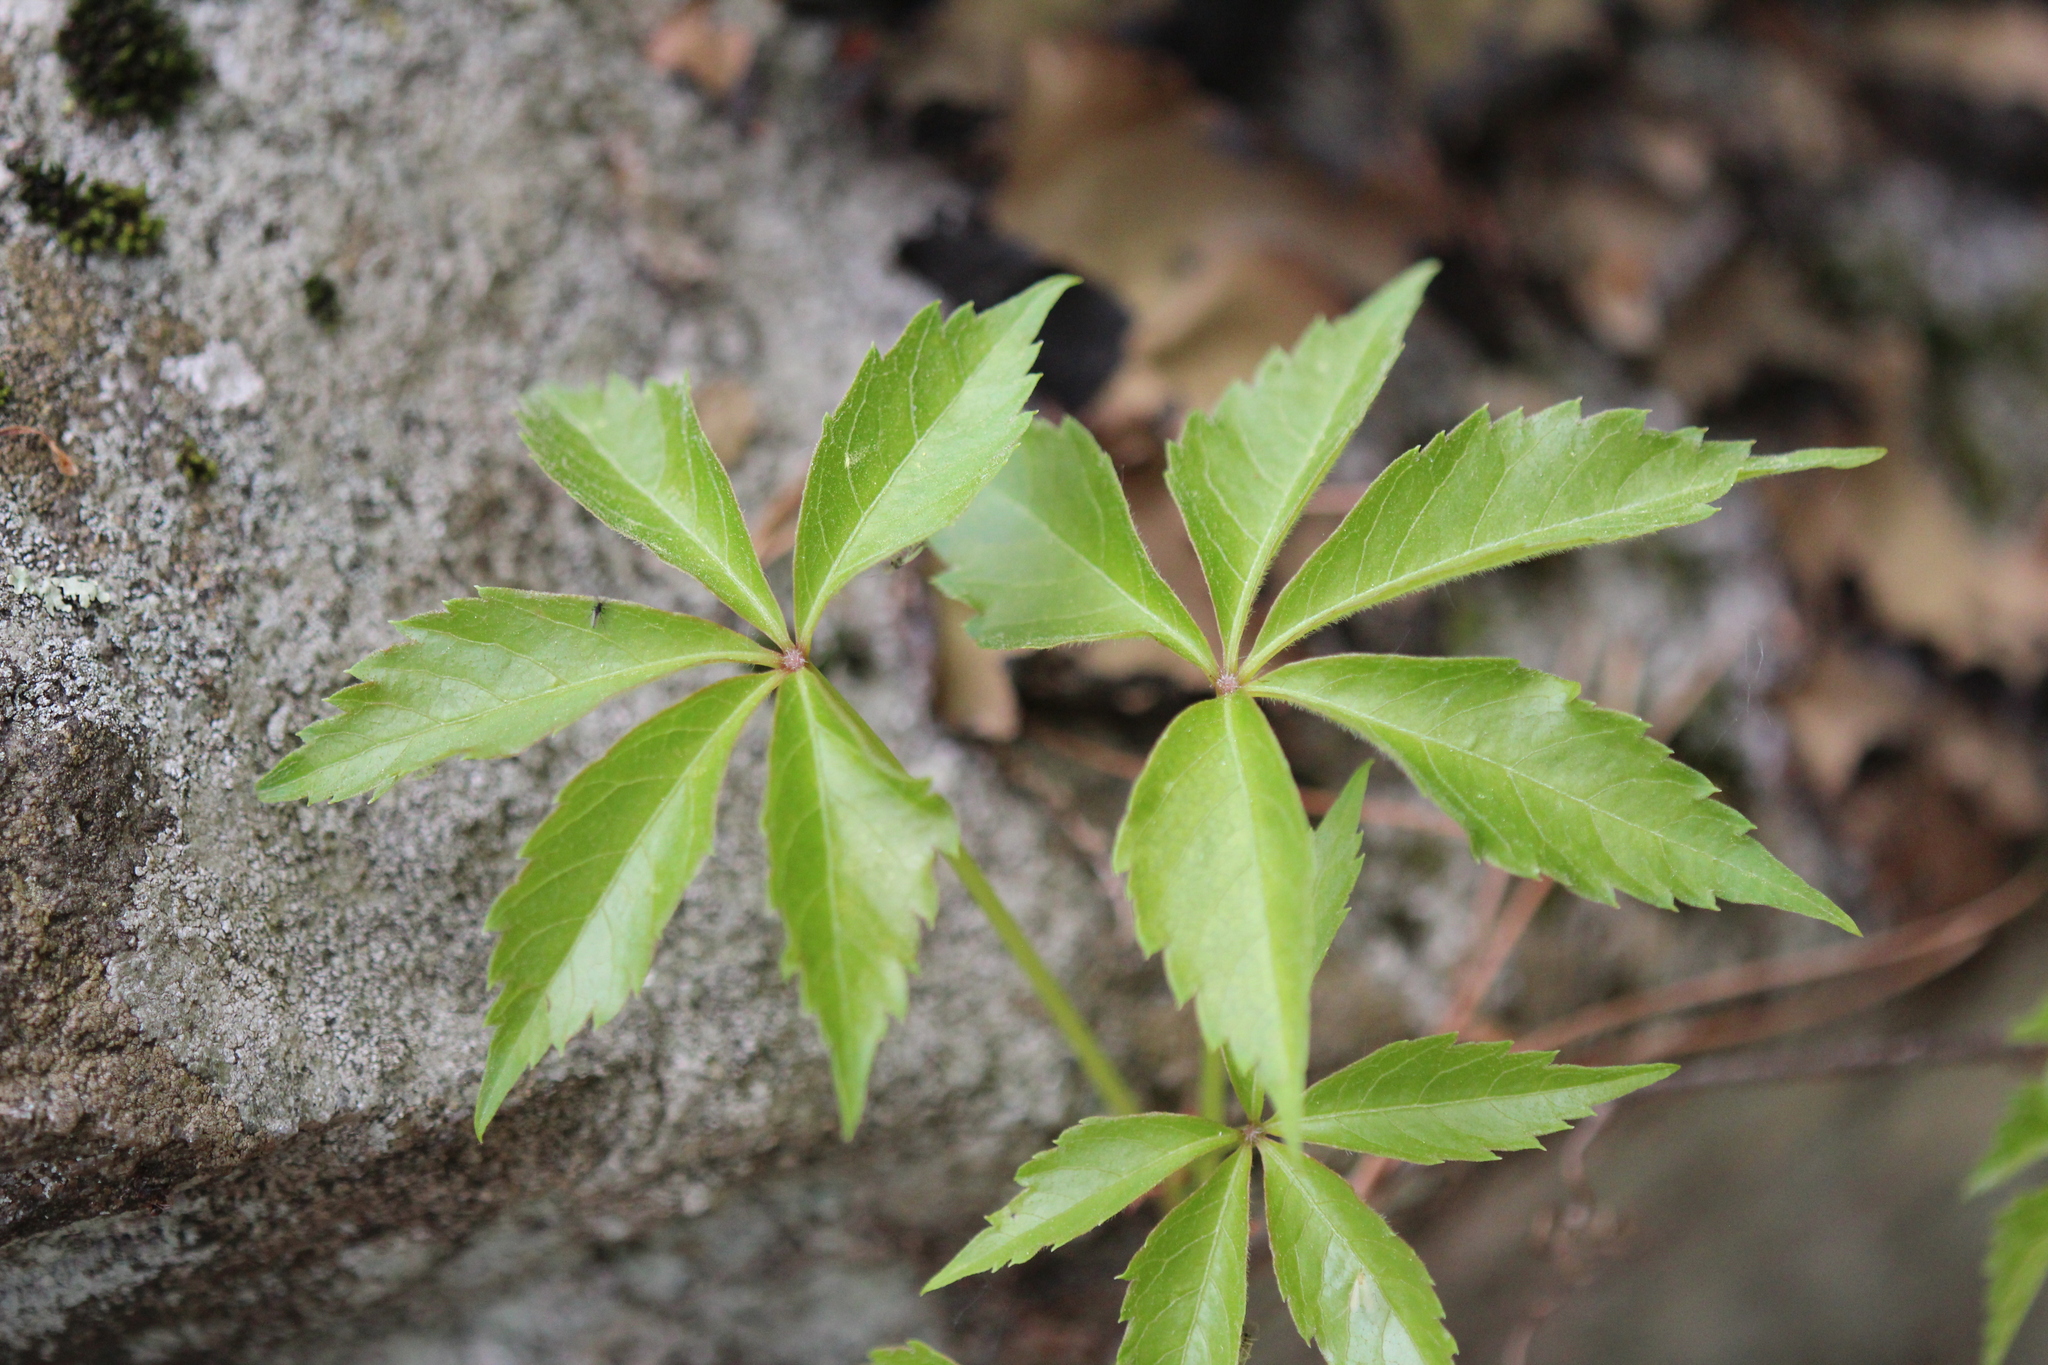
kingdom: Plantae
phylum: Tracheophyta
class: Magnoliopsida
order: Vitales
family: Vitaceae
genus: Parthenocissus
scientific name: Parthenocissus quinquefolia
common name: Virginia-creeper
